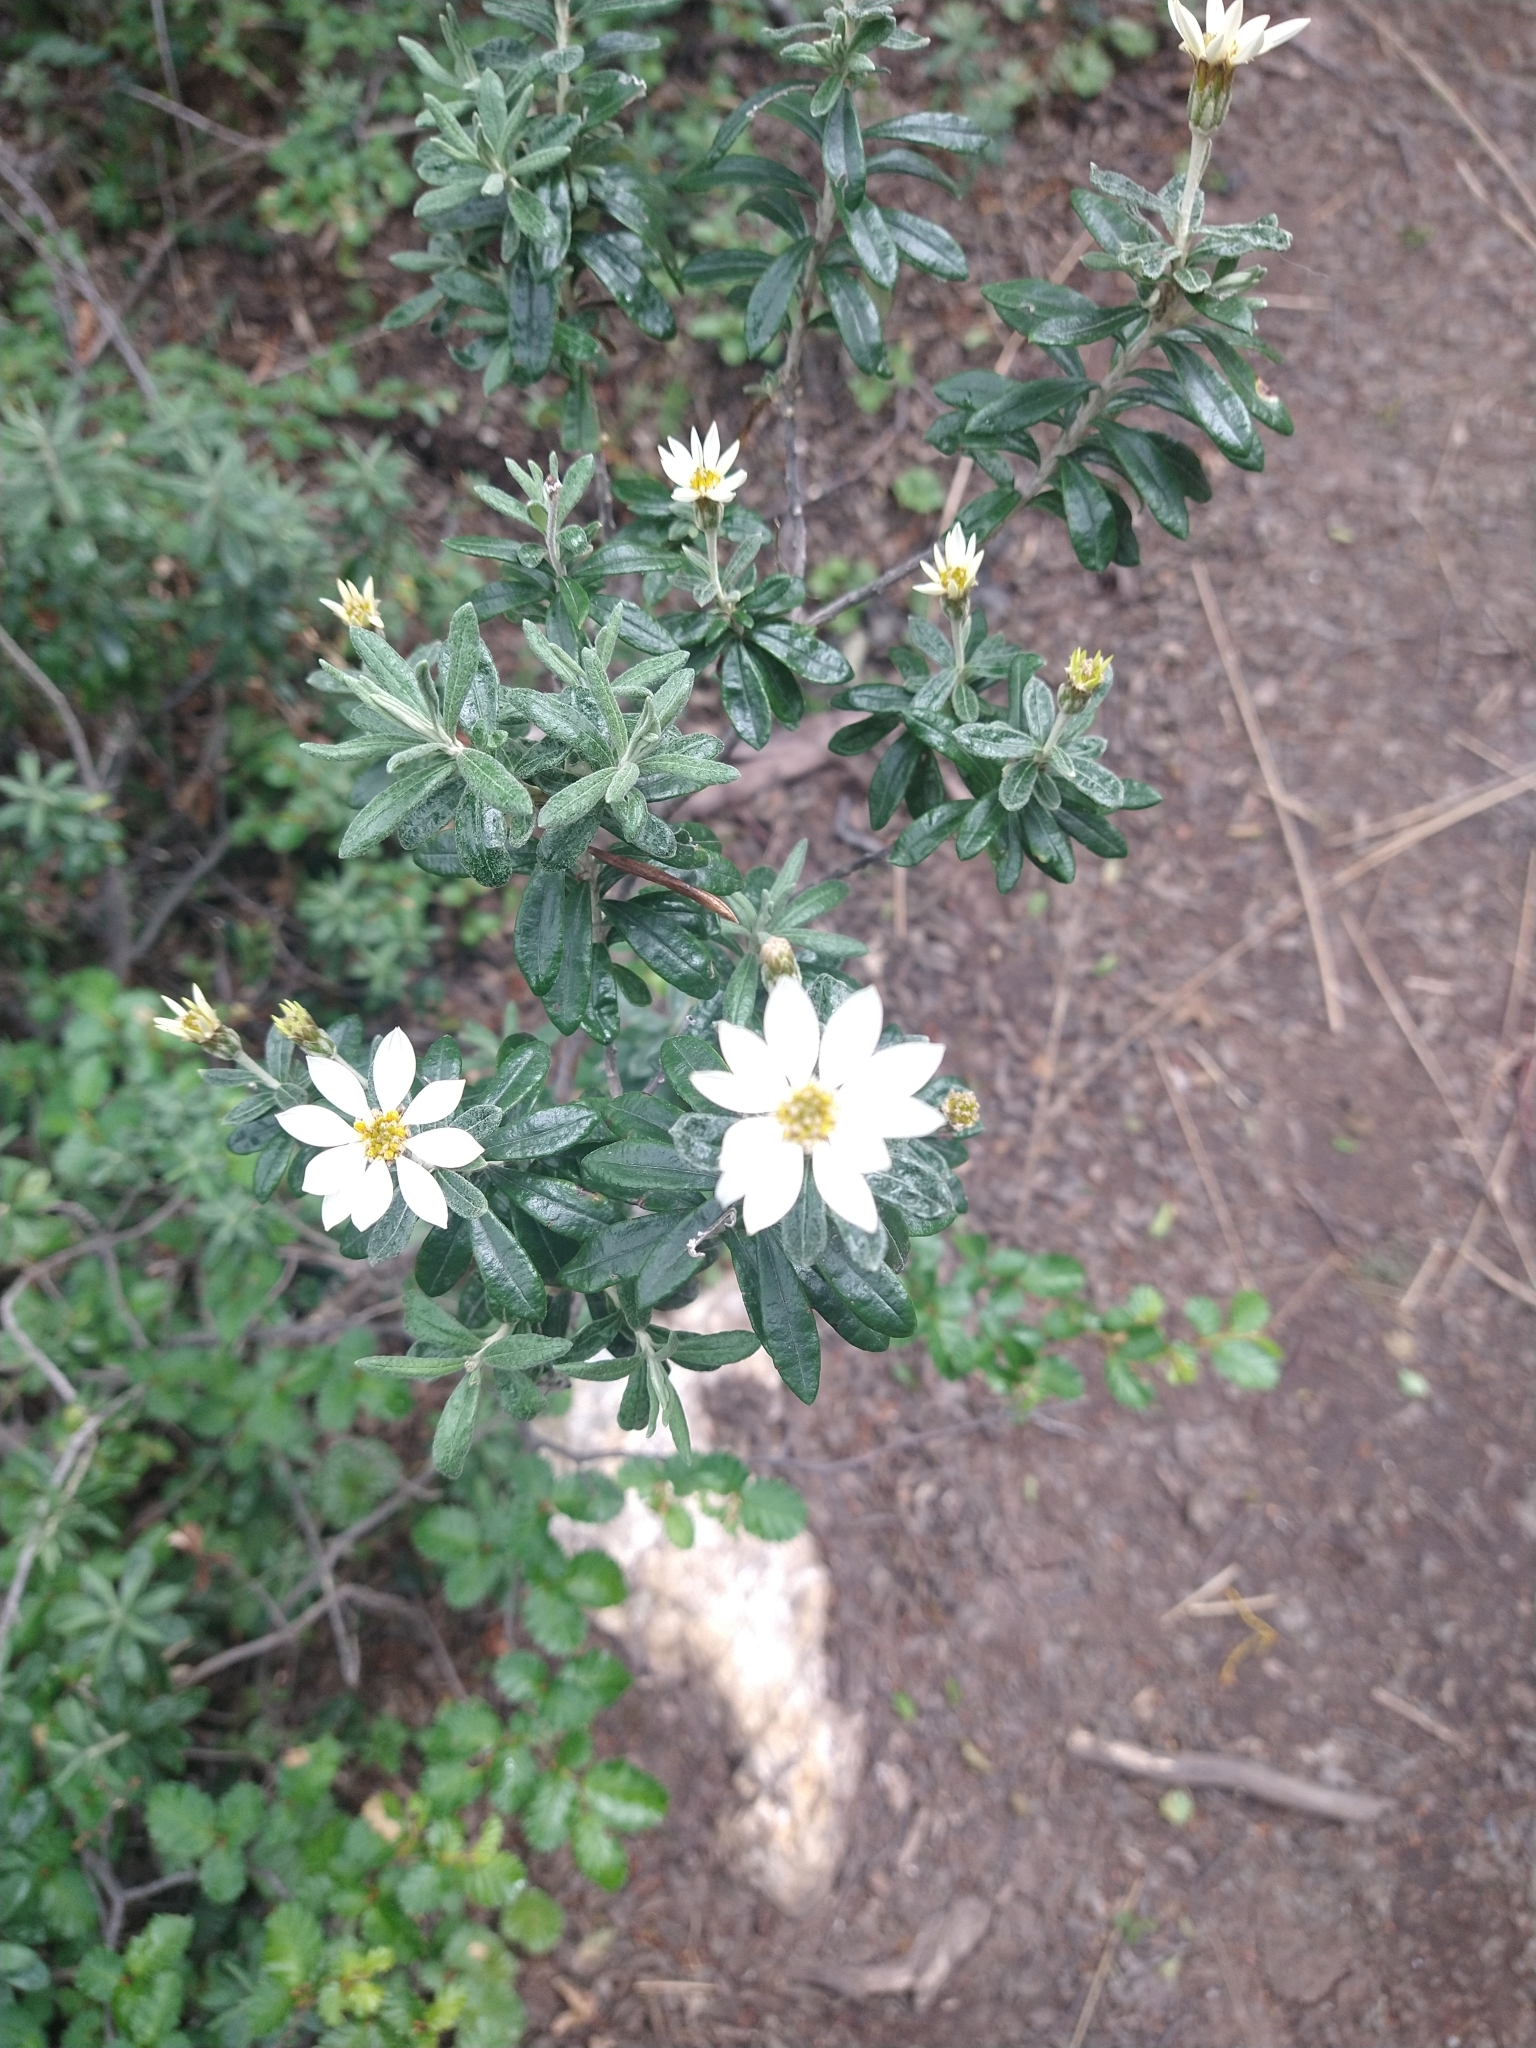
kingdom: Plantae
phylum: Tracheophyta
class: Magnoliopsida
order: Asterales
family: Asteraceae
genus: Chiliotrichum
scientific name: Chiliotrichum diffusum
